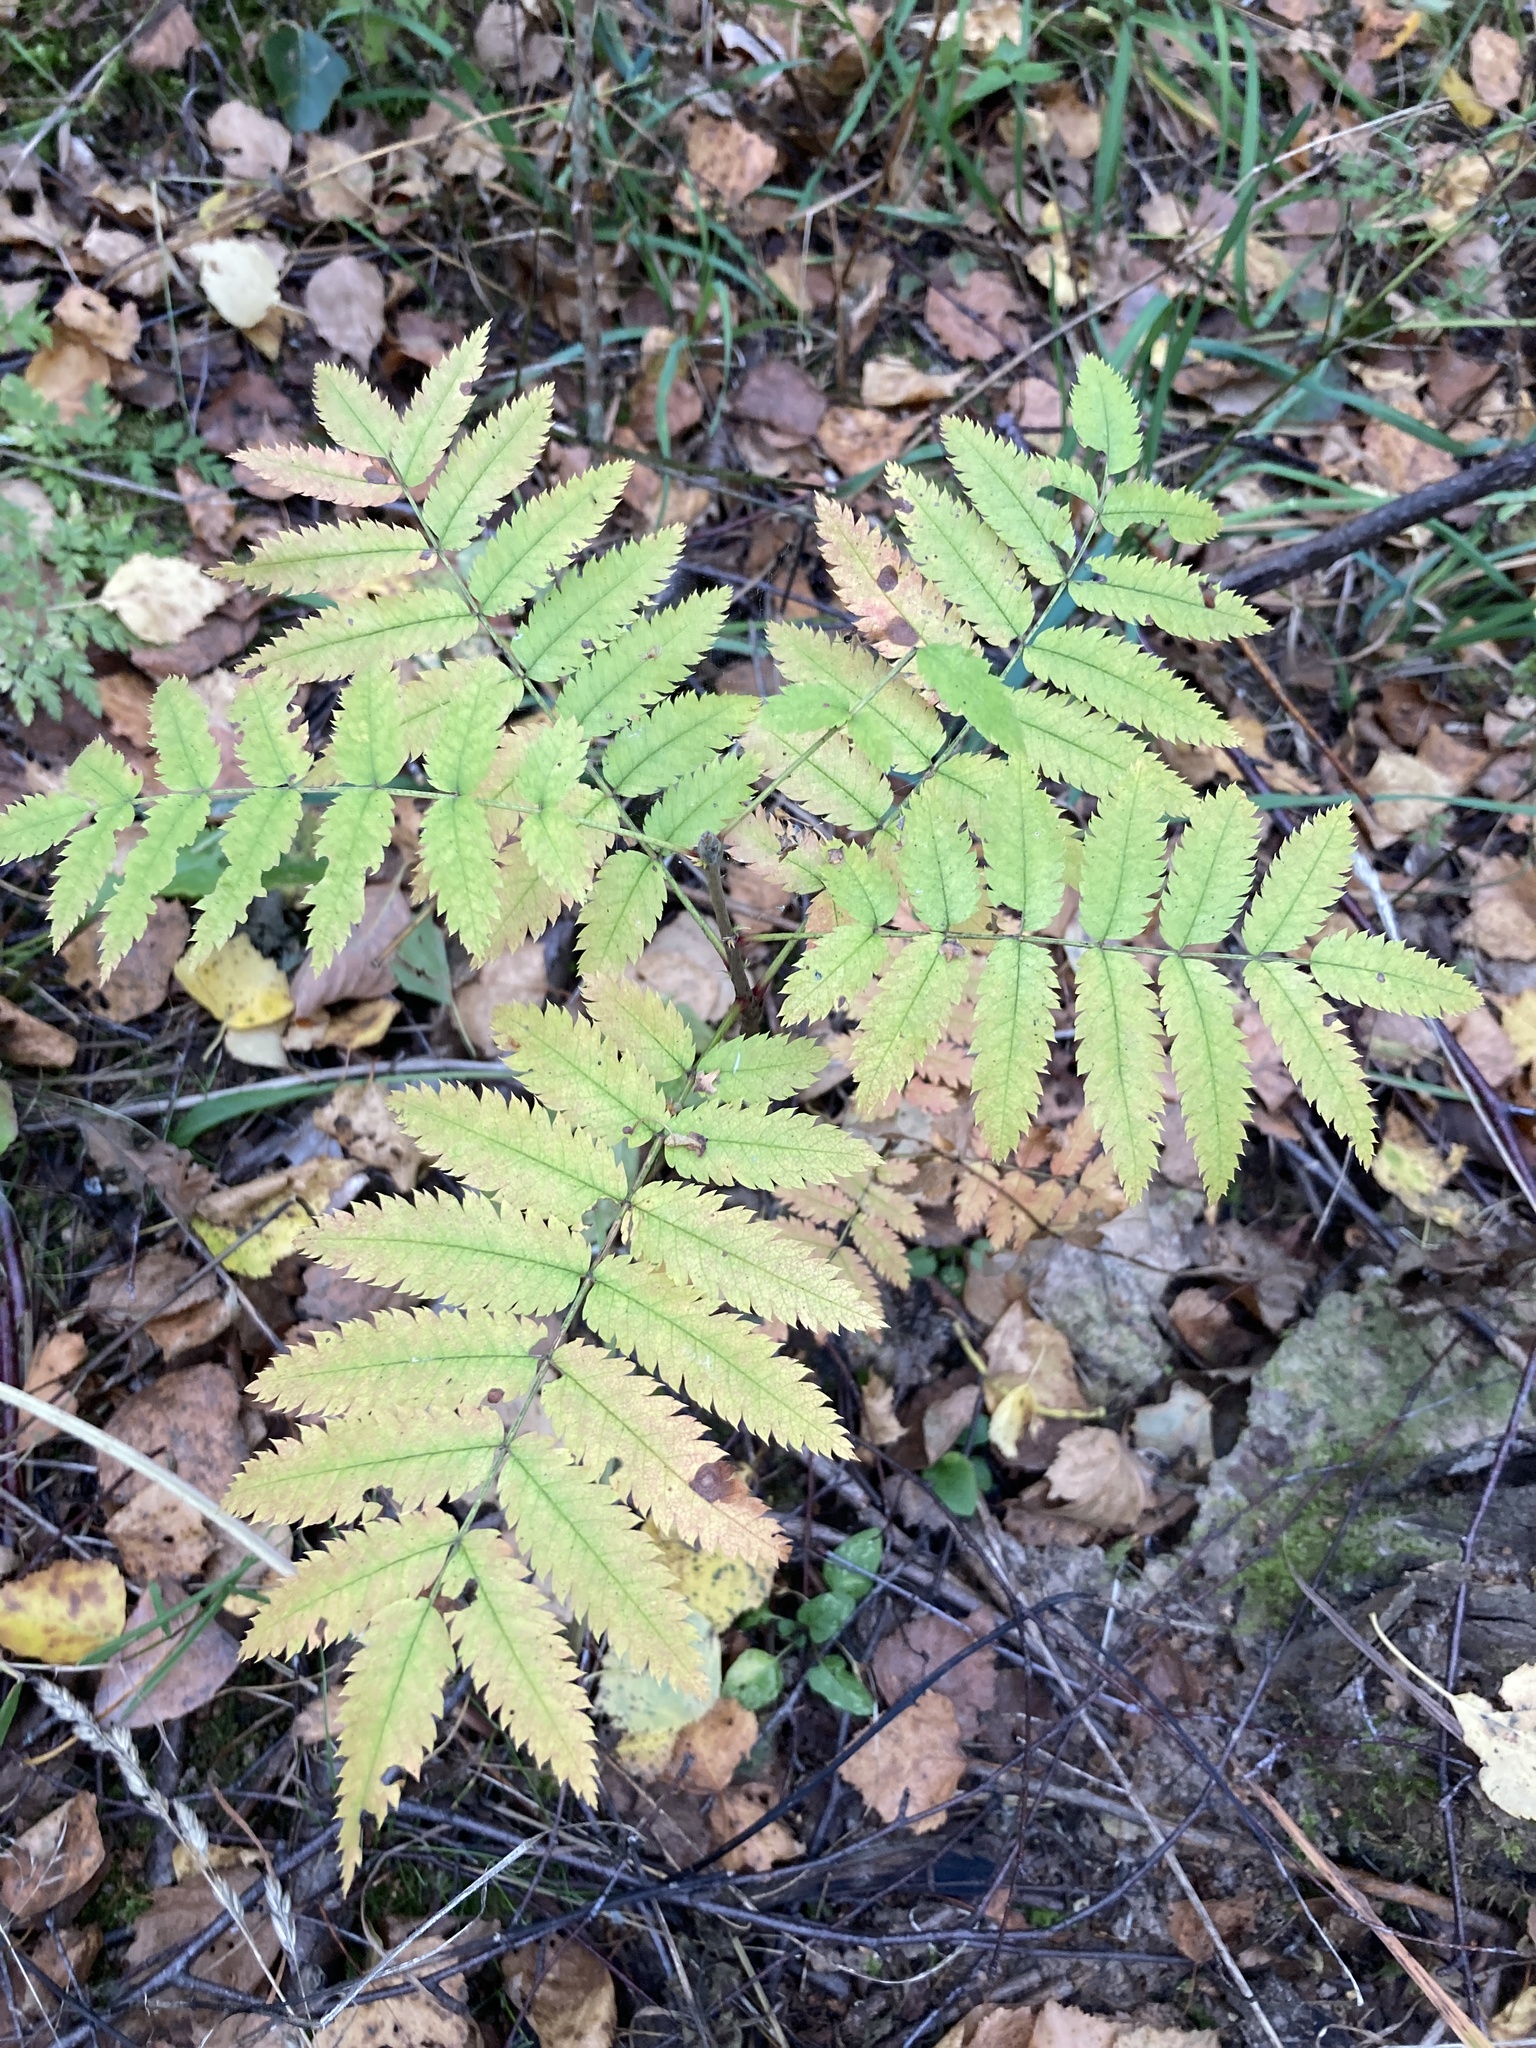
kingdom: Plantae
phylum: Tracheophyta
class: Magnoliopsida
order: Rosales
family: Rosaceae
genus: Sorbus
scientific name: Sorbus aucuparia
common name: Rowan
